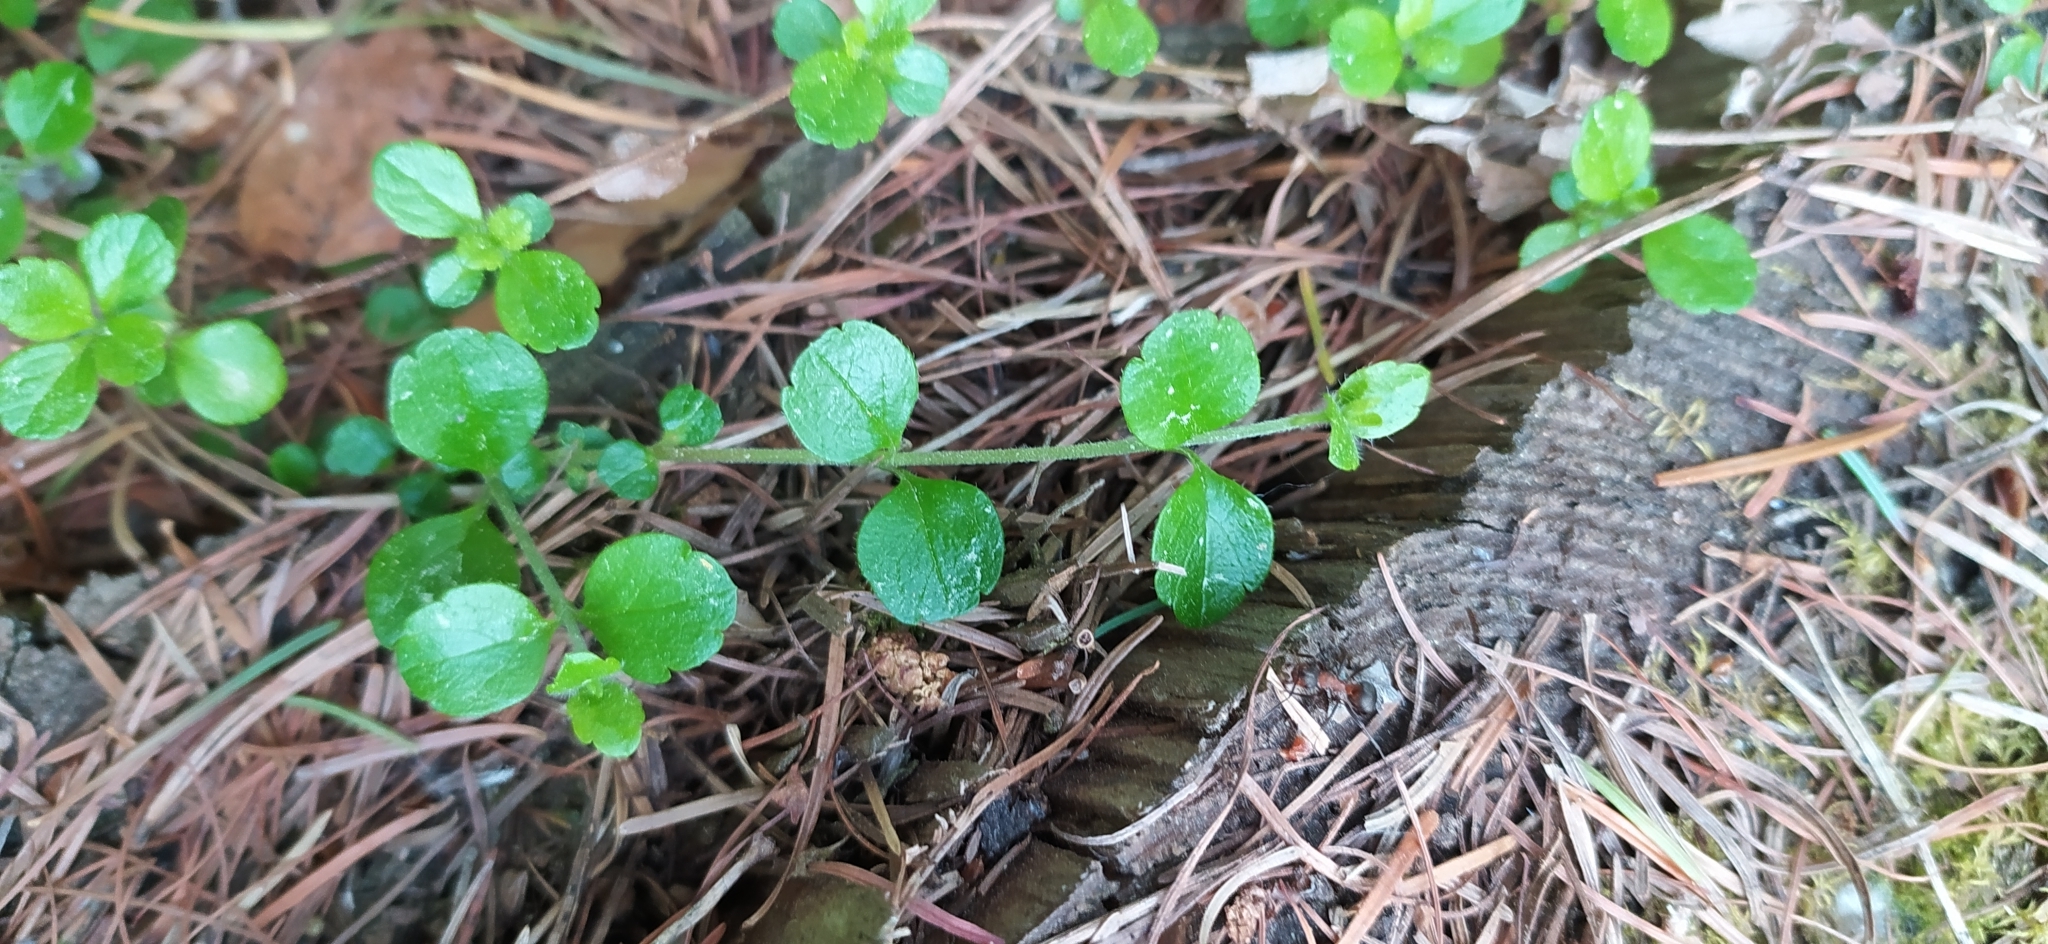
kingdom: Plantae
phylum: Tracheophyta
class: Magnoliopsida
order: Dipsacales
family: Caprifoliaceae
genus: Linnaea
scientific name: Linnaea borealis
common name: Twinflower
